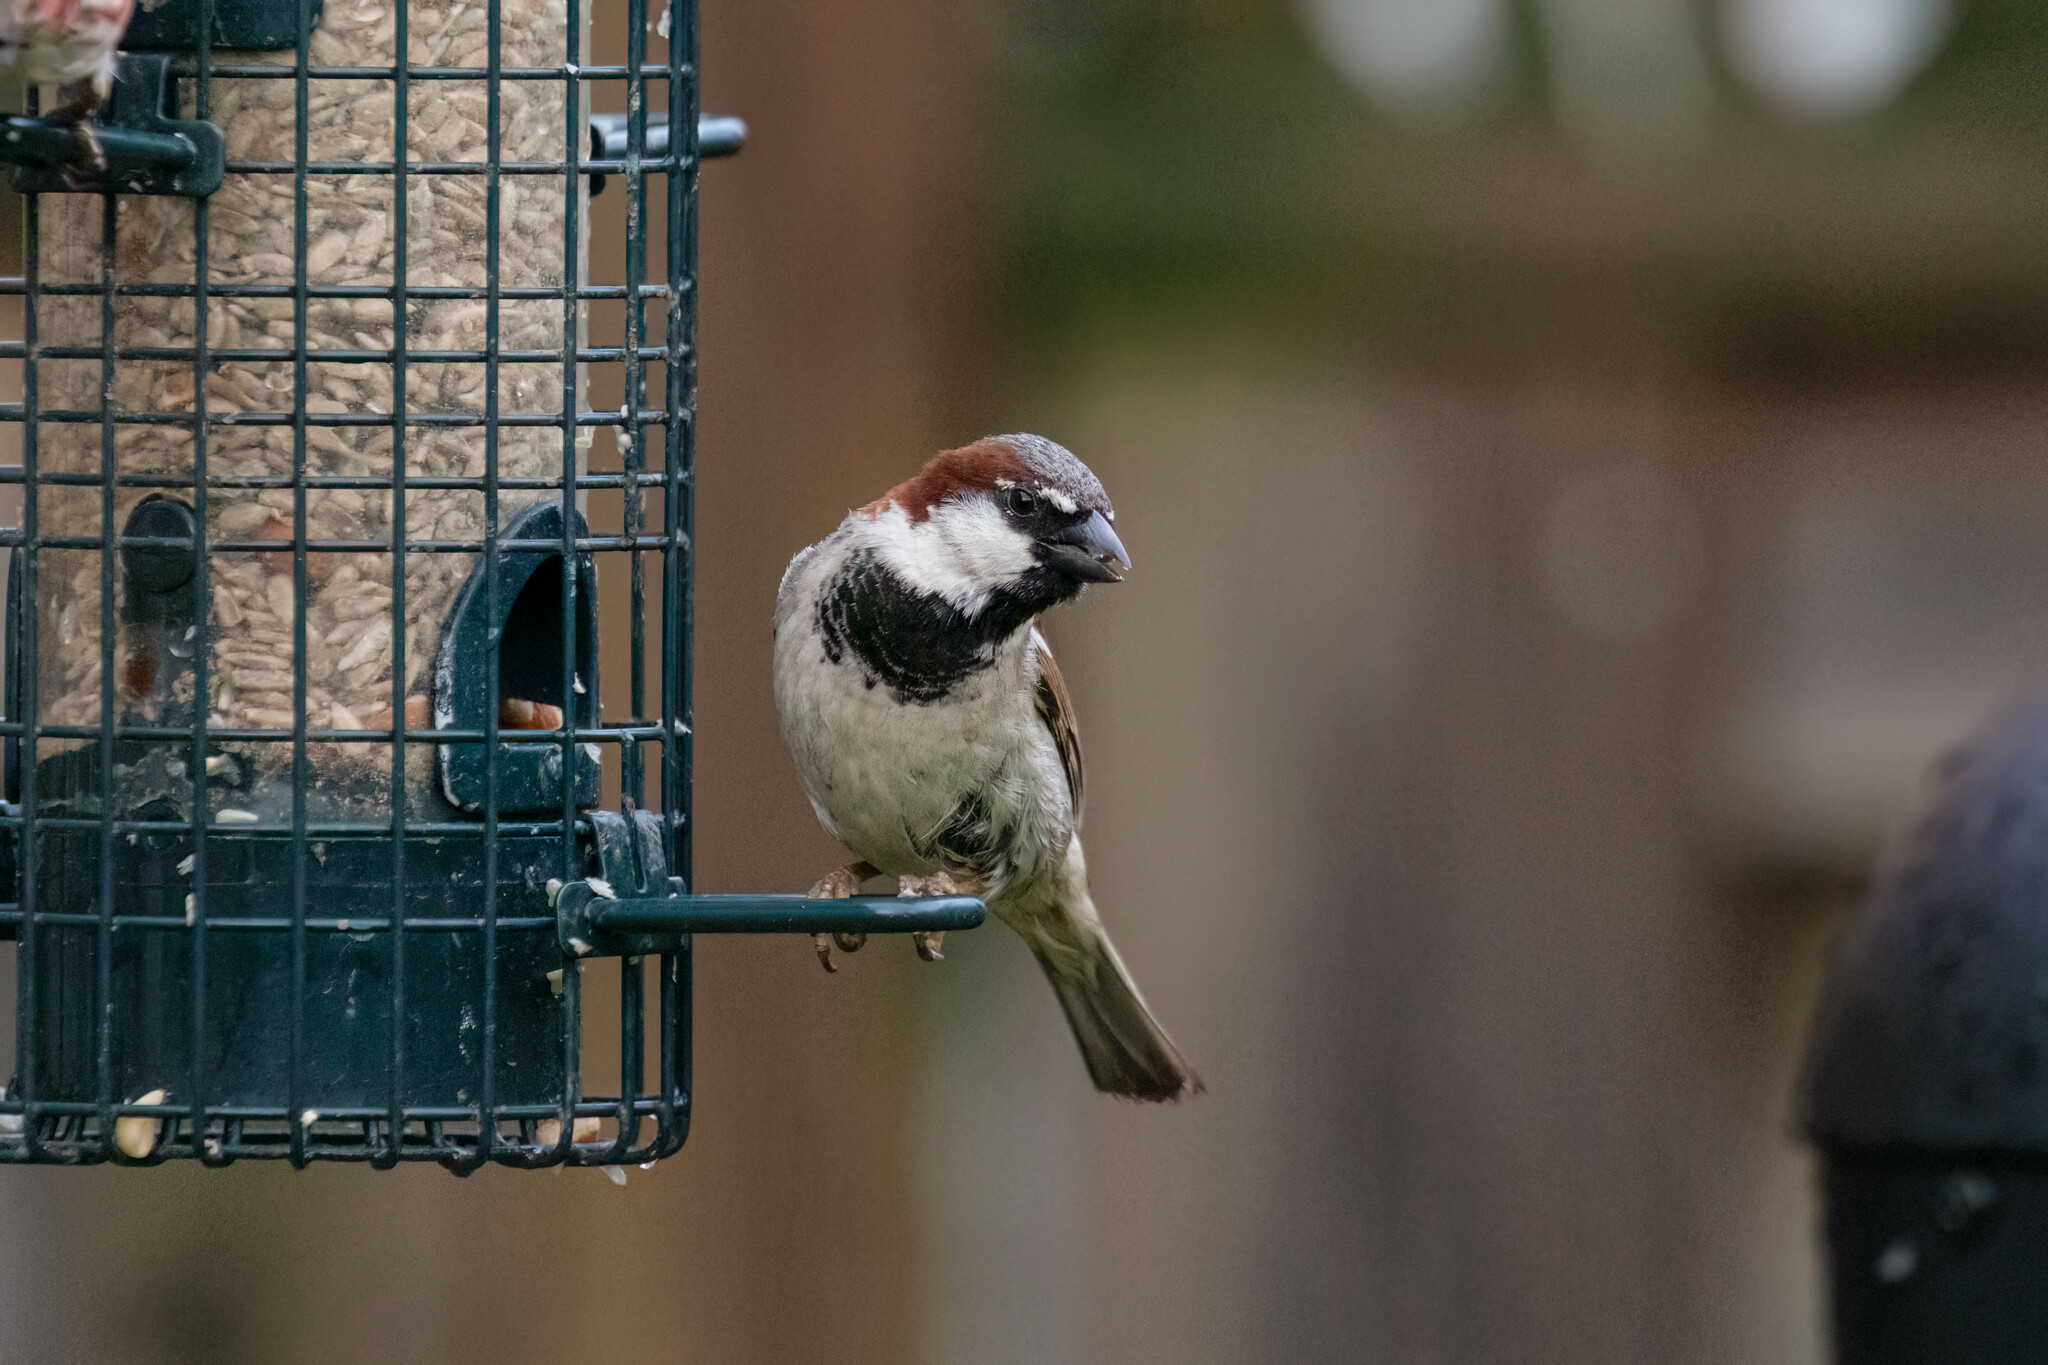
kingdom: Animalia
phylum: Chordata
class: Aves
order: Passeriformes
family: Passeridae
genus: Passer
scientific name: Passer domesticus
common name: House sparrow
